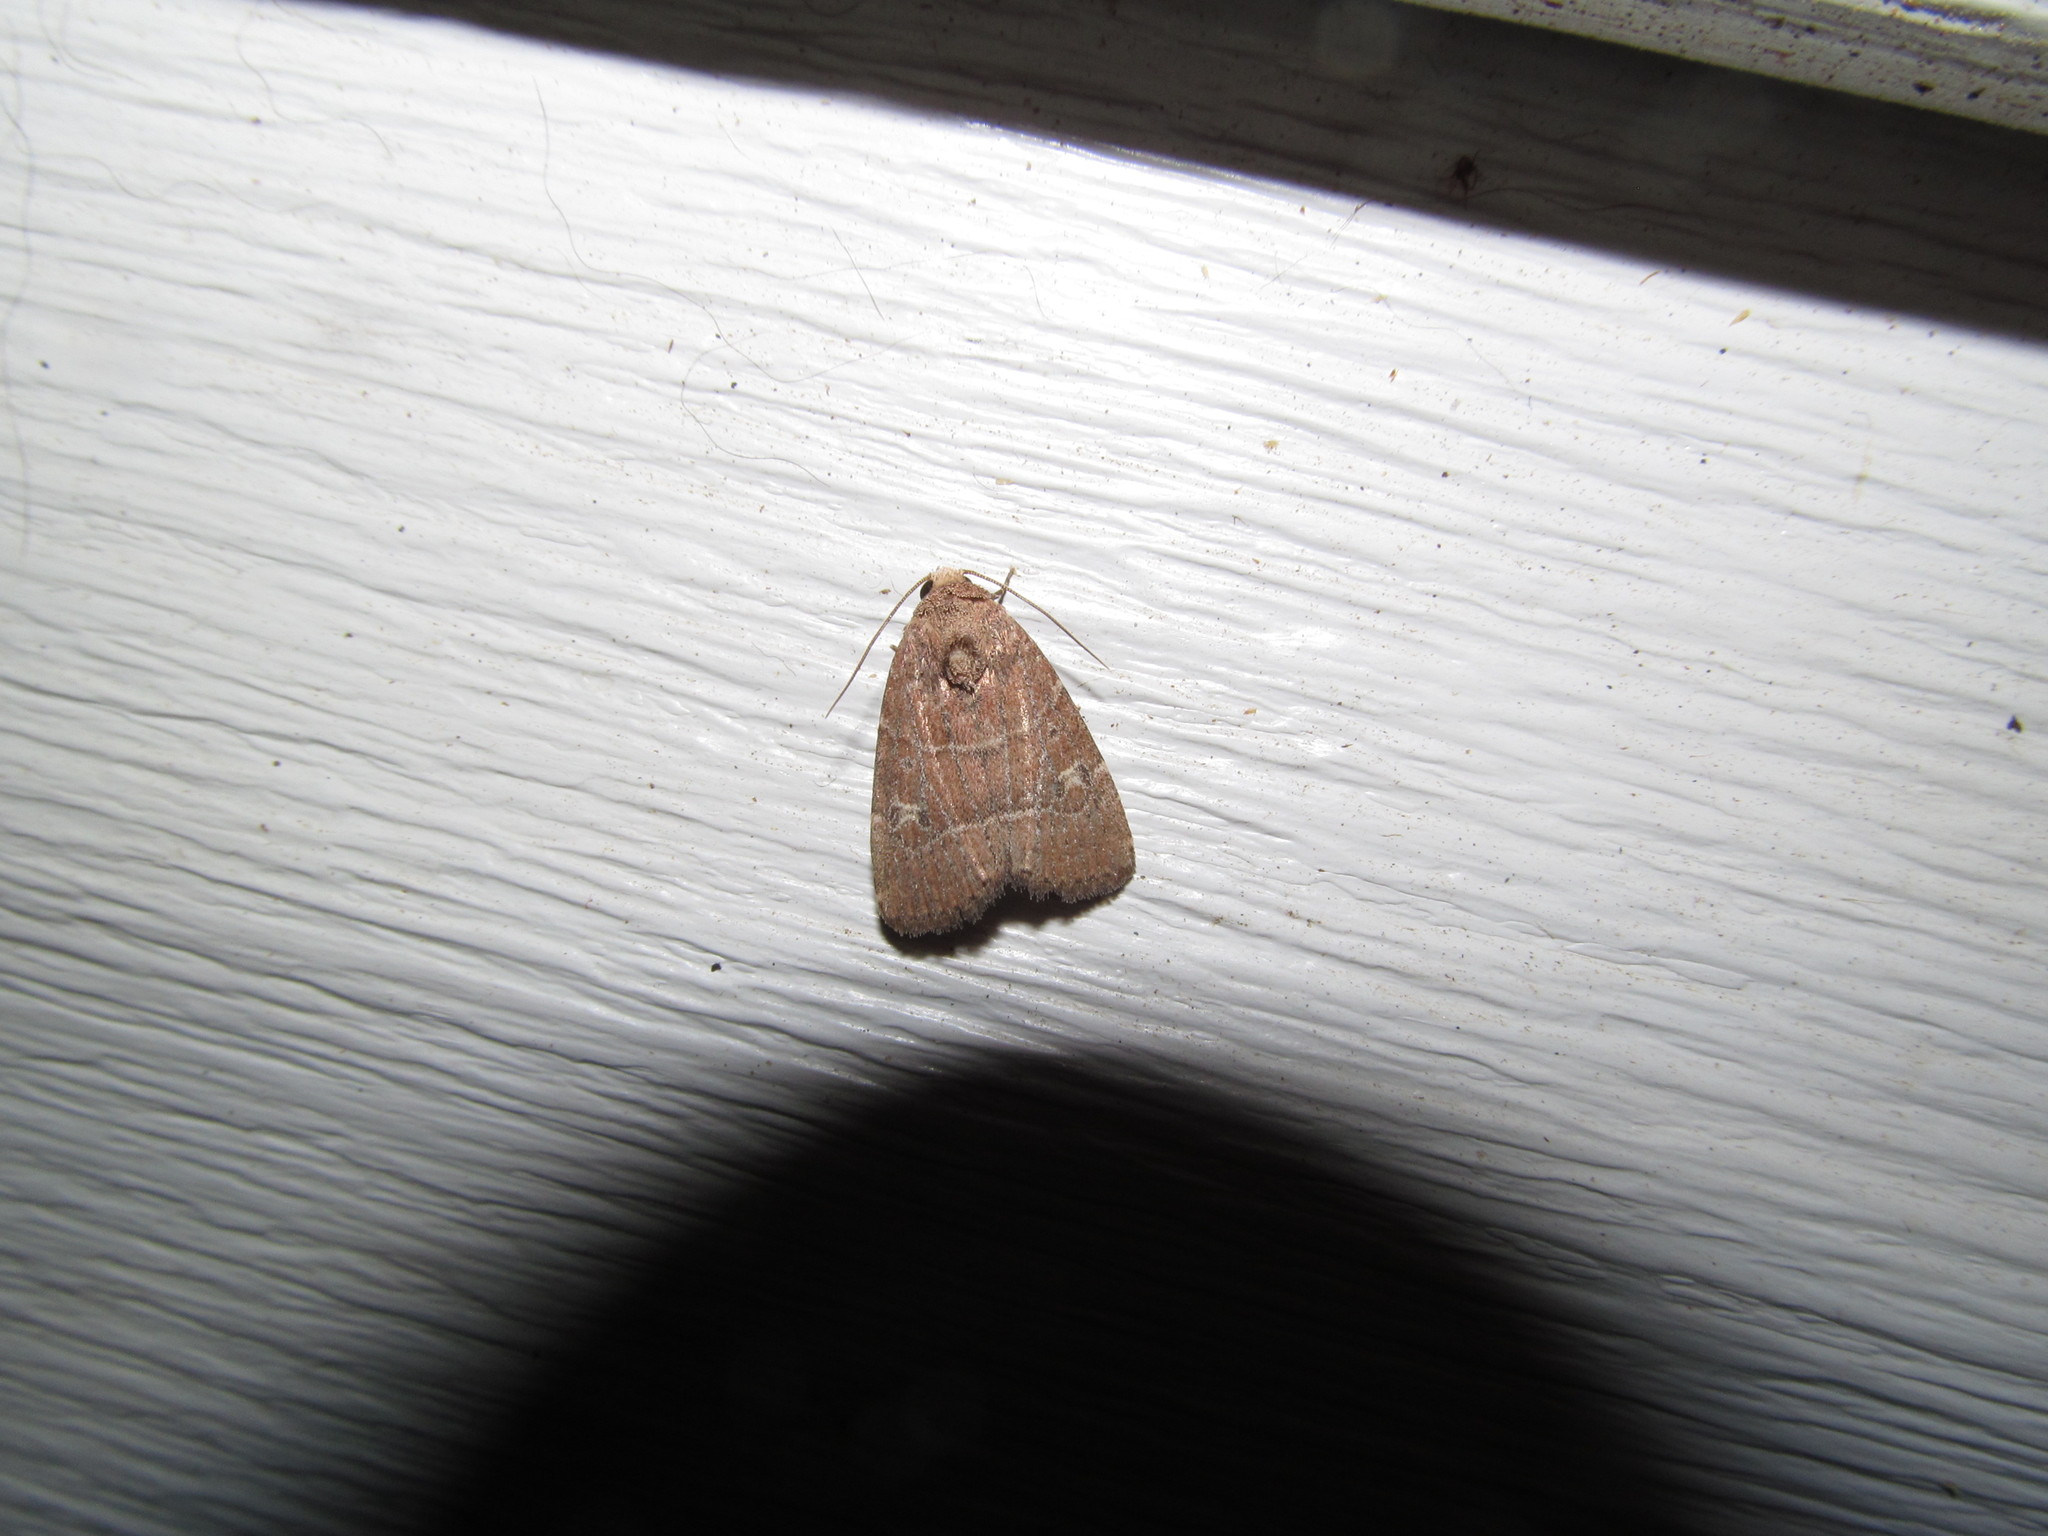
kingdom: Animalia
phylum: Arthropoda
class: Insecta
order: Lepidoptera
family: Noctuidae
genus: Elaphria
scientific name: Elaphria grata
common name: Grateful midget moth
